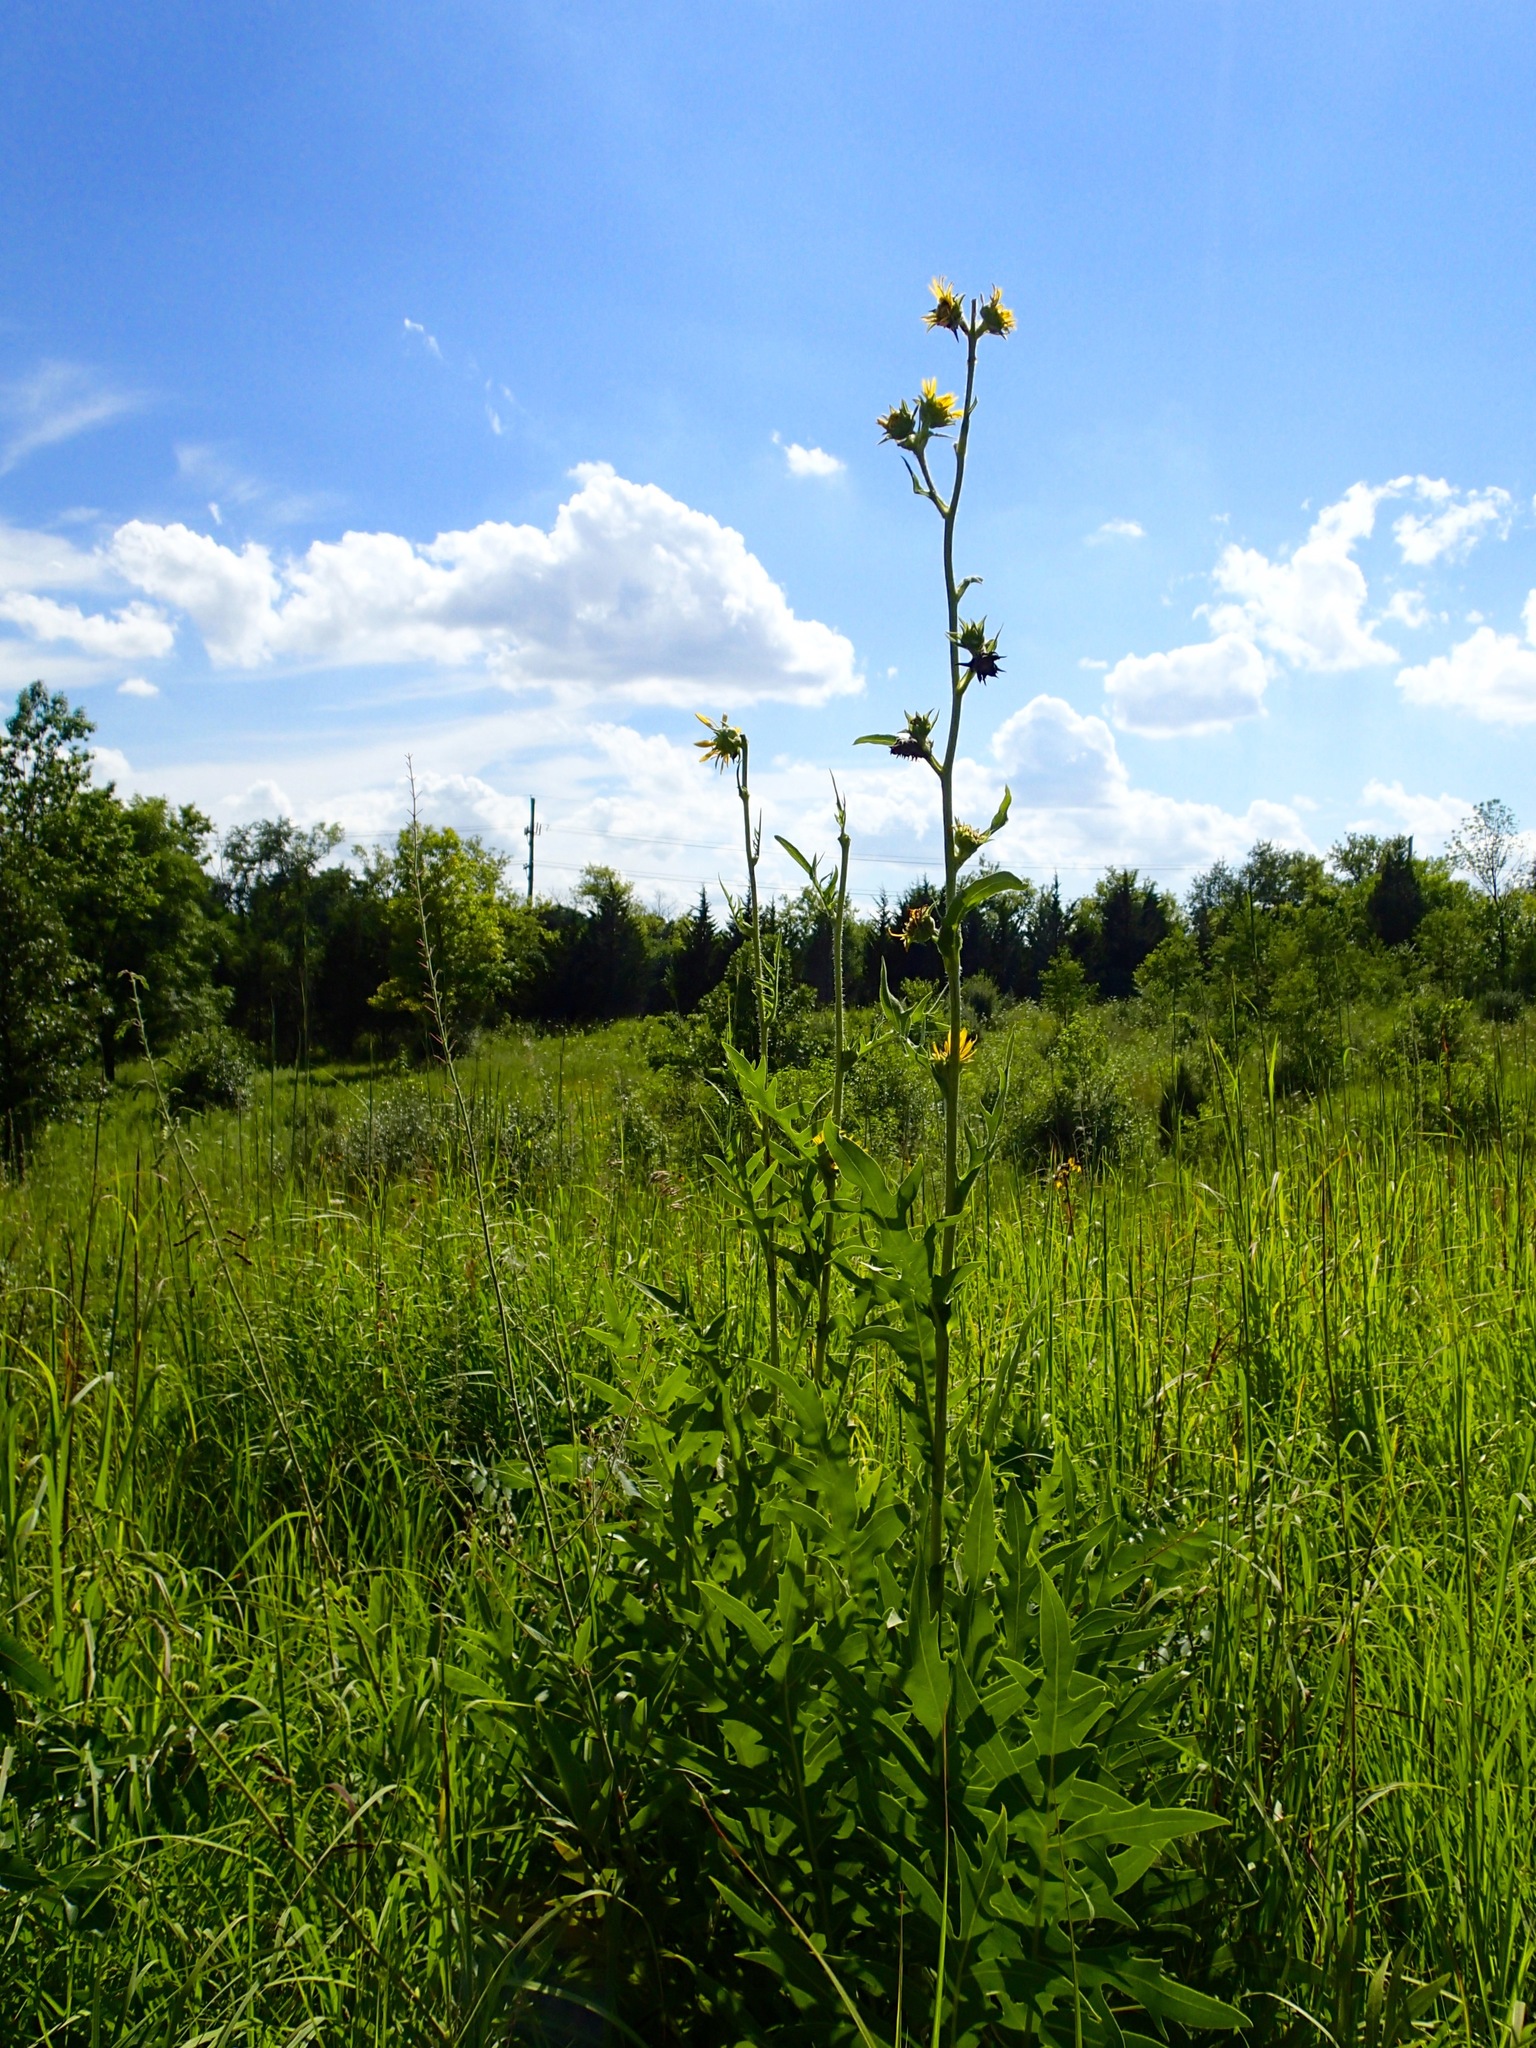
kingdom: Plantae
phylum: Tracheophyta
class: Magnoliopsida
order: Asterales
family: Asteraceae
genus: Silphium
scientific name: Silphium laciniatum
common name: Polarplant
